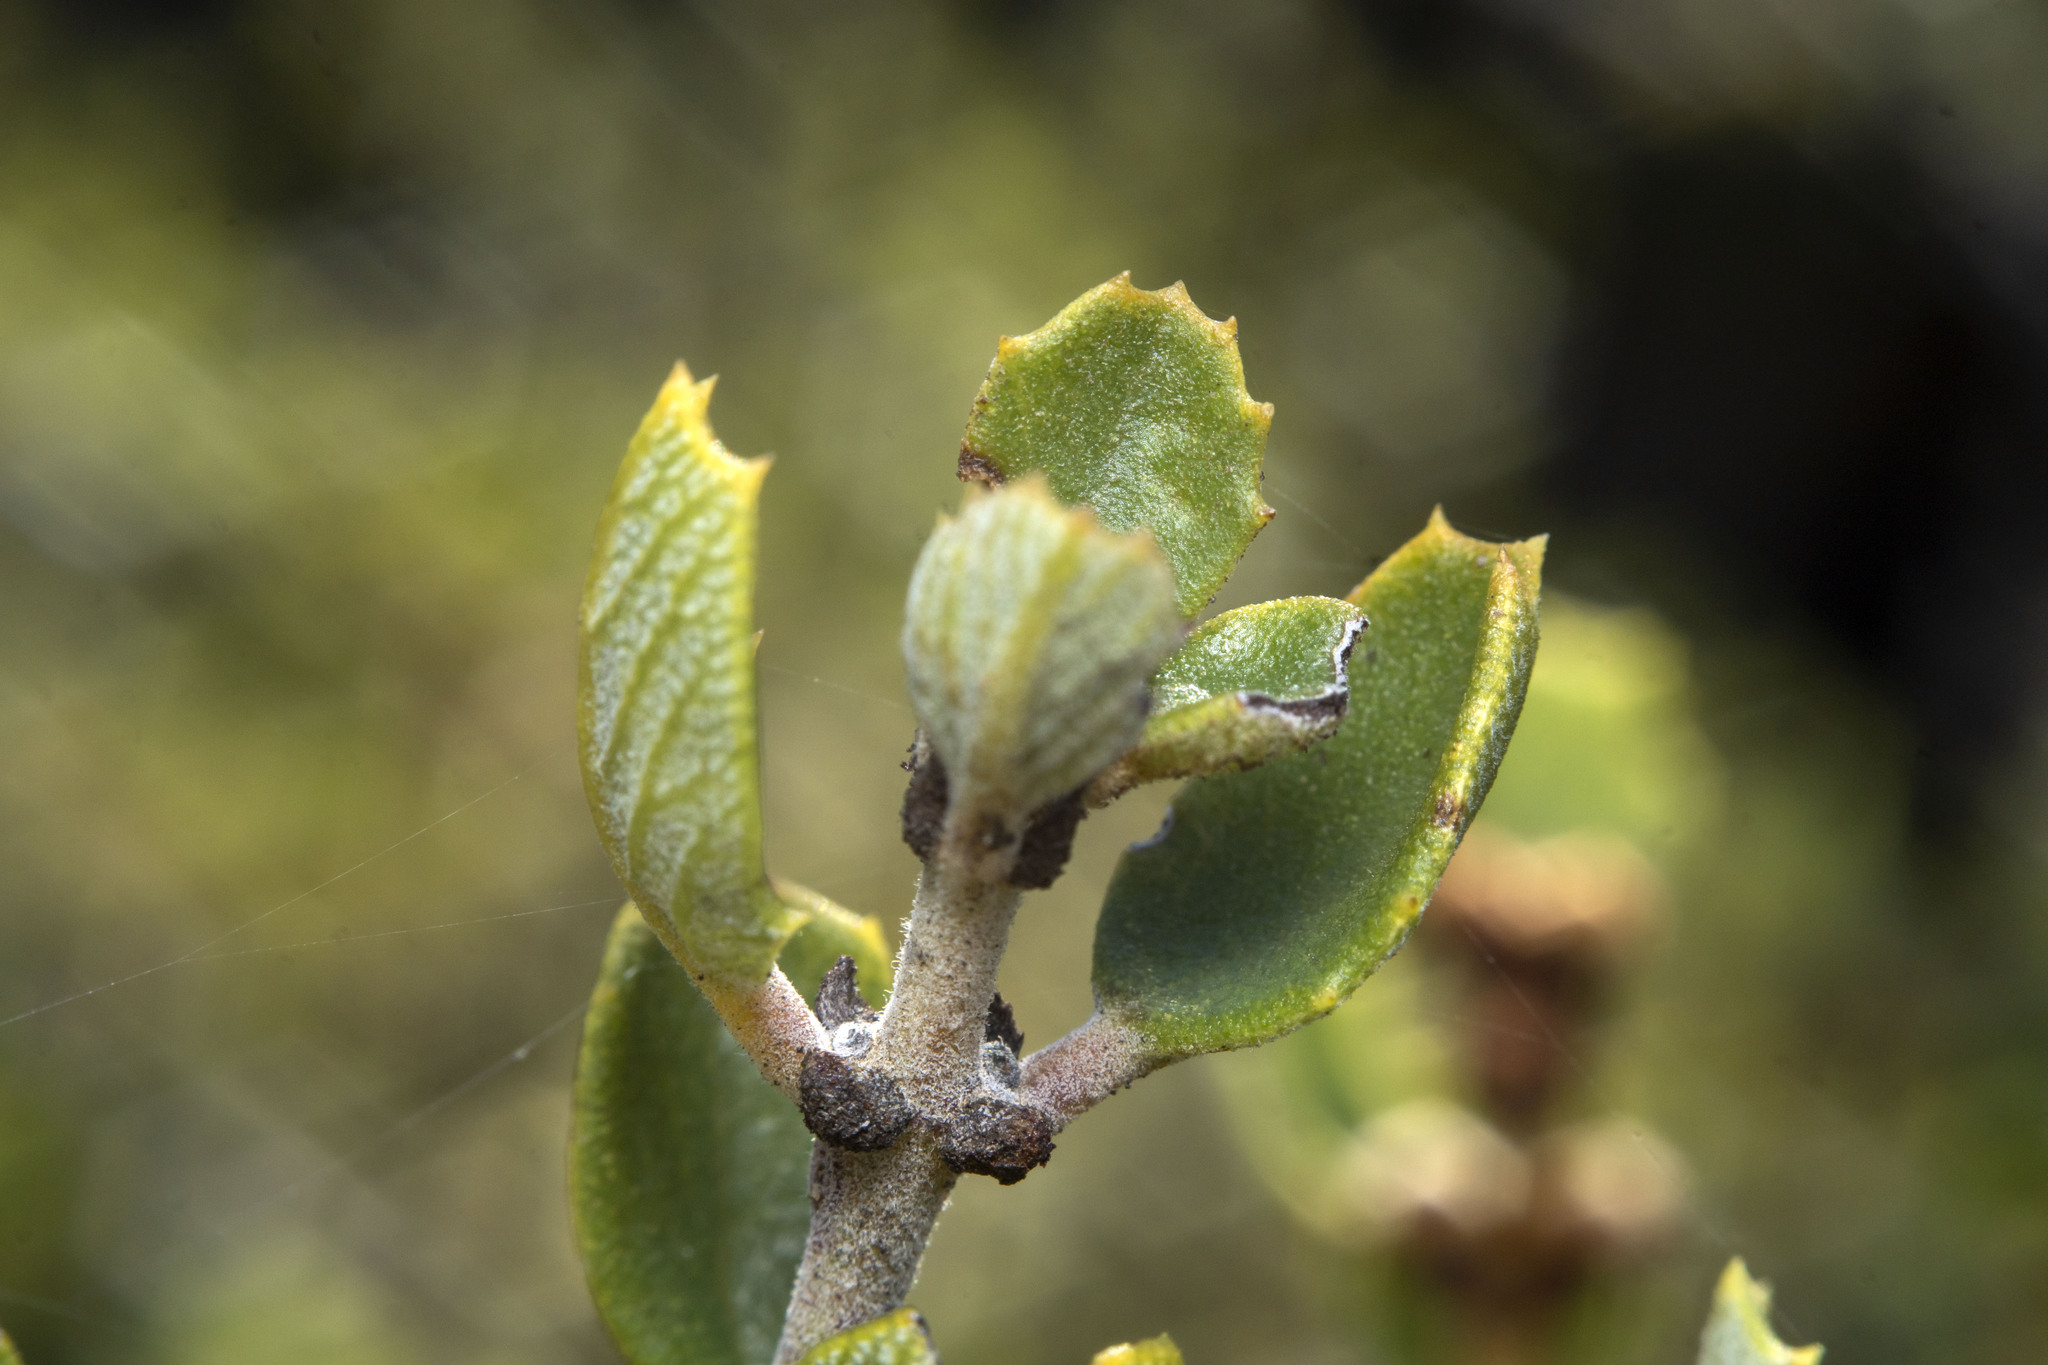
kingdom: Plantae
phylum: Tracheophyta
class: Magnoliopsida
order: Rosales
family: Rhamnaceae
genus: Ceanothus
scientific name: Ceanothus perplexans
